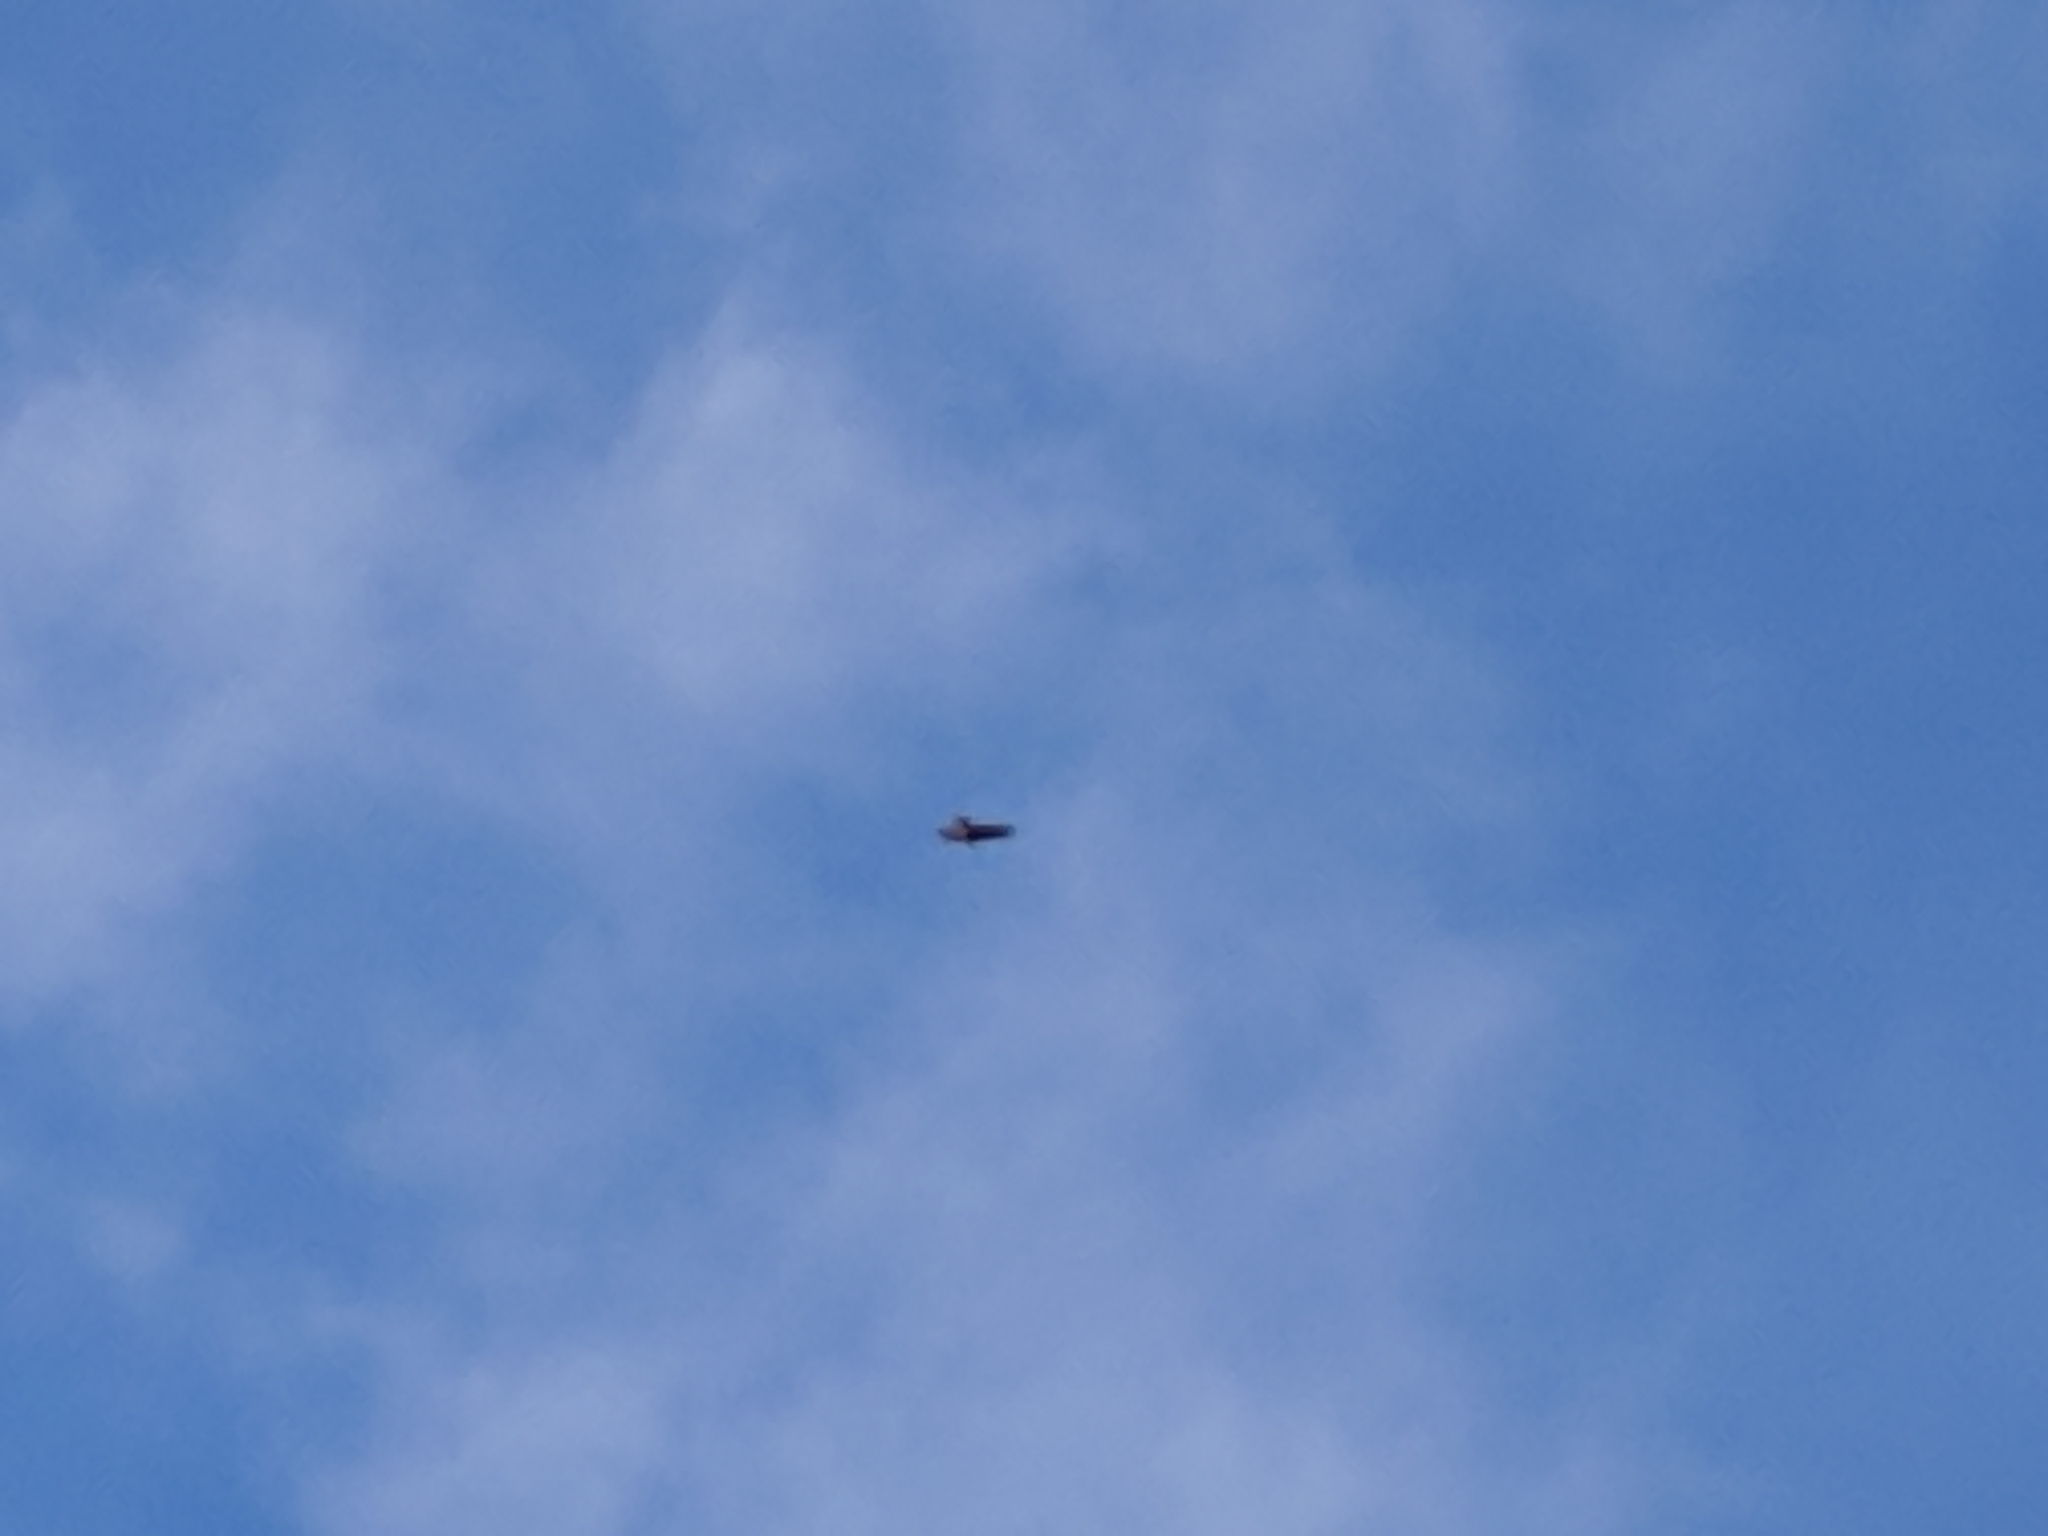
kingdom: Animalia
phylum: Chordata
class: Aves
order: Accipitriformes
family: Accipitridae
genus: Circus
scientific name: Circus maillardi
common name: Reunion harrier
